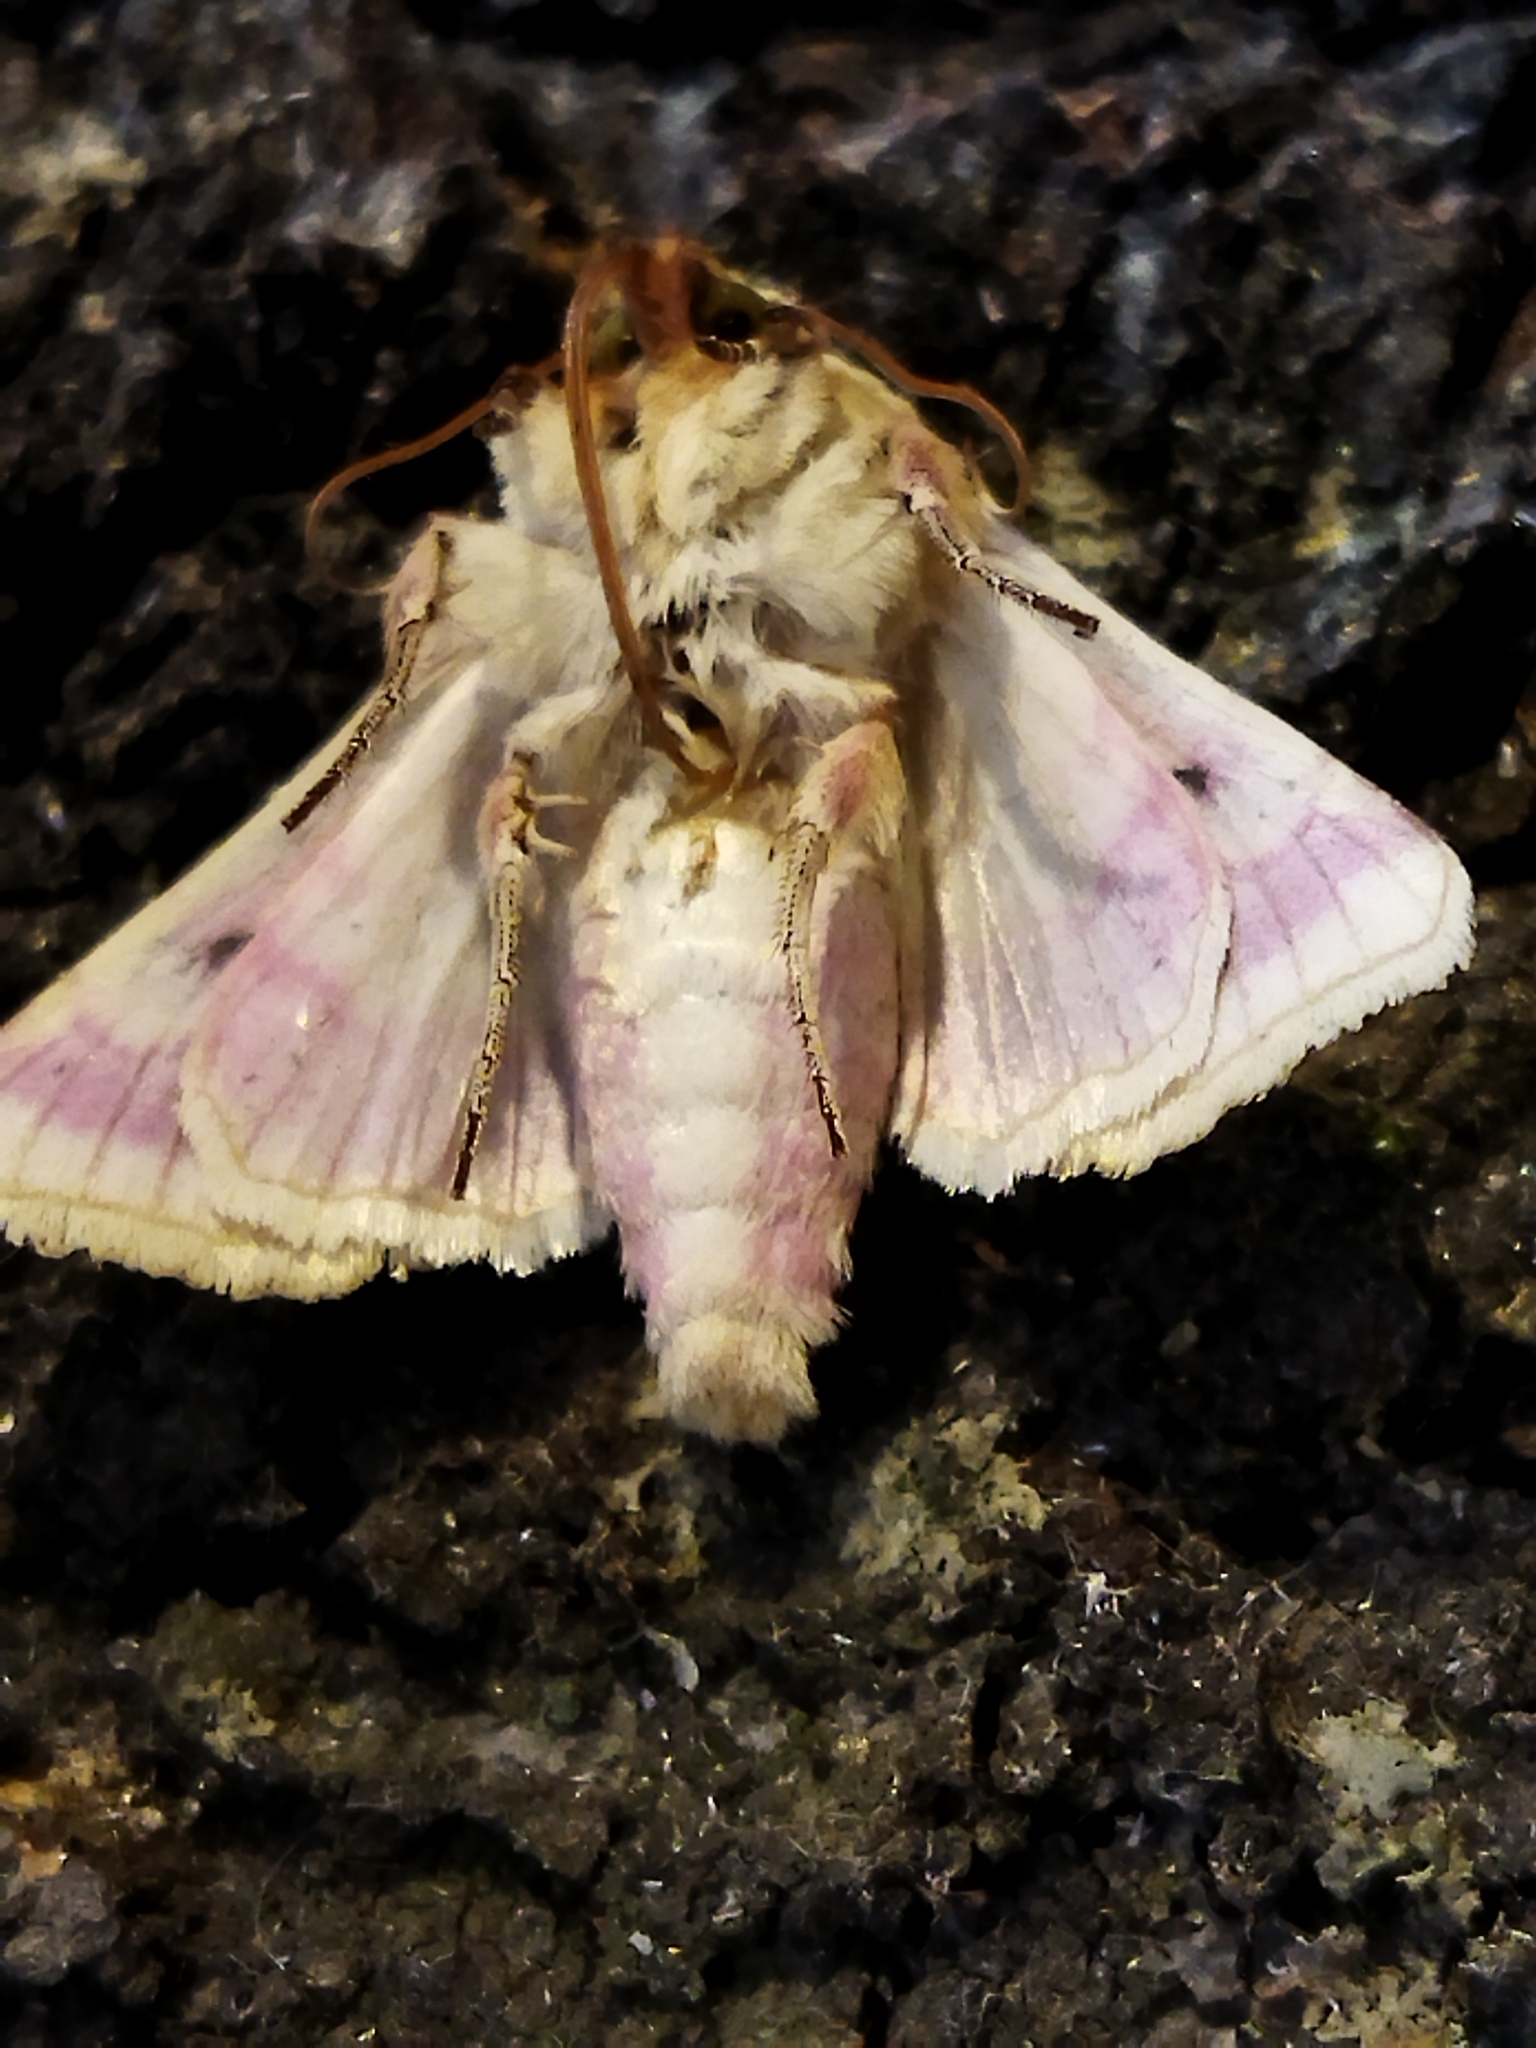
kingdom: Animalia
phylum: Arthropoda
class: Insecta
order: Lepidoptera
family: Noctuidae
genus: Periphanes
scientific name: Periphanes delphinii
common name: Pease blossom
